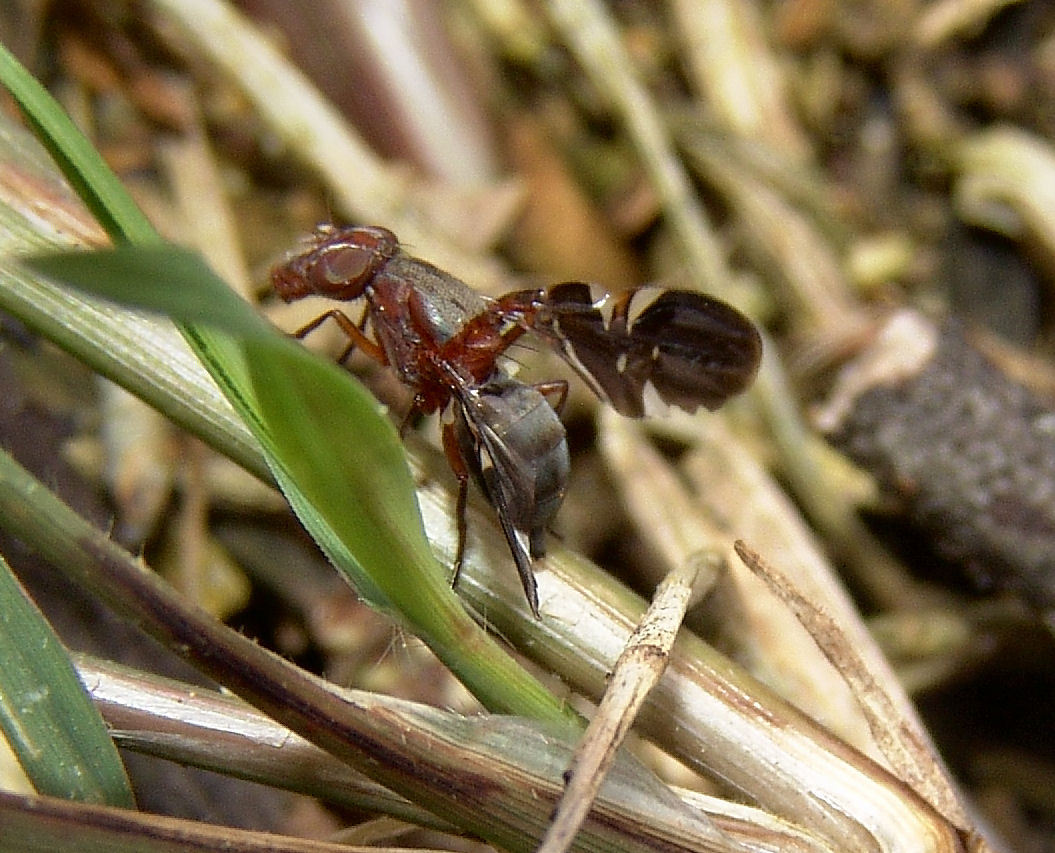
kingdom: Animalia
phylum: Arthropoda
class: Insecta
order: Diptera
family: Ulidiidae
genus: Delphinia
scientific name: Delphinia picta
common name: Common picture-winged fly
